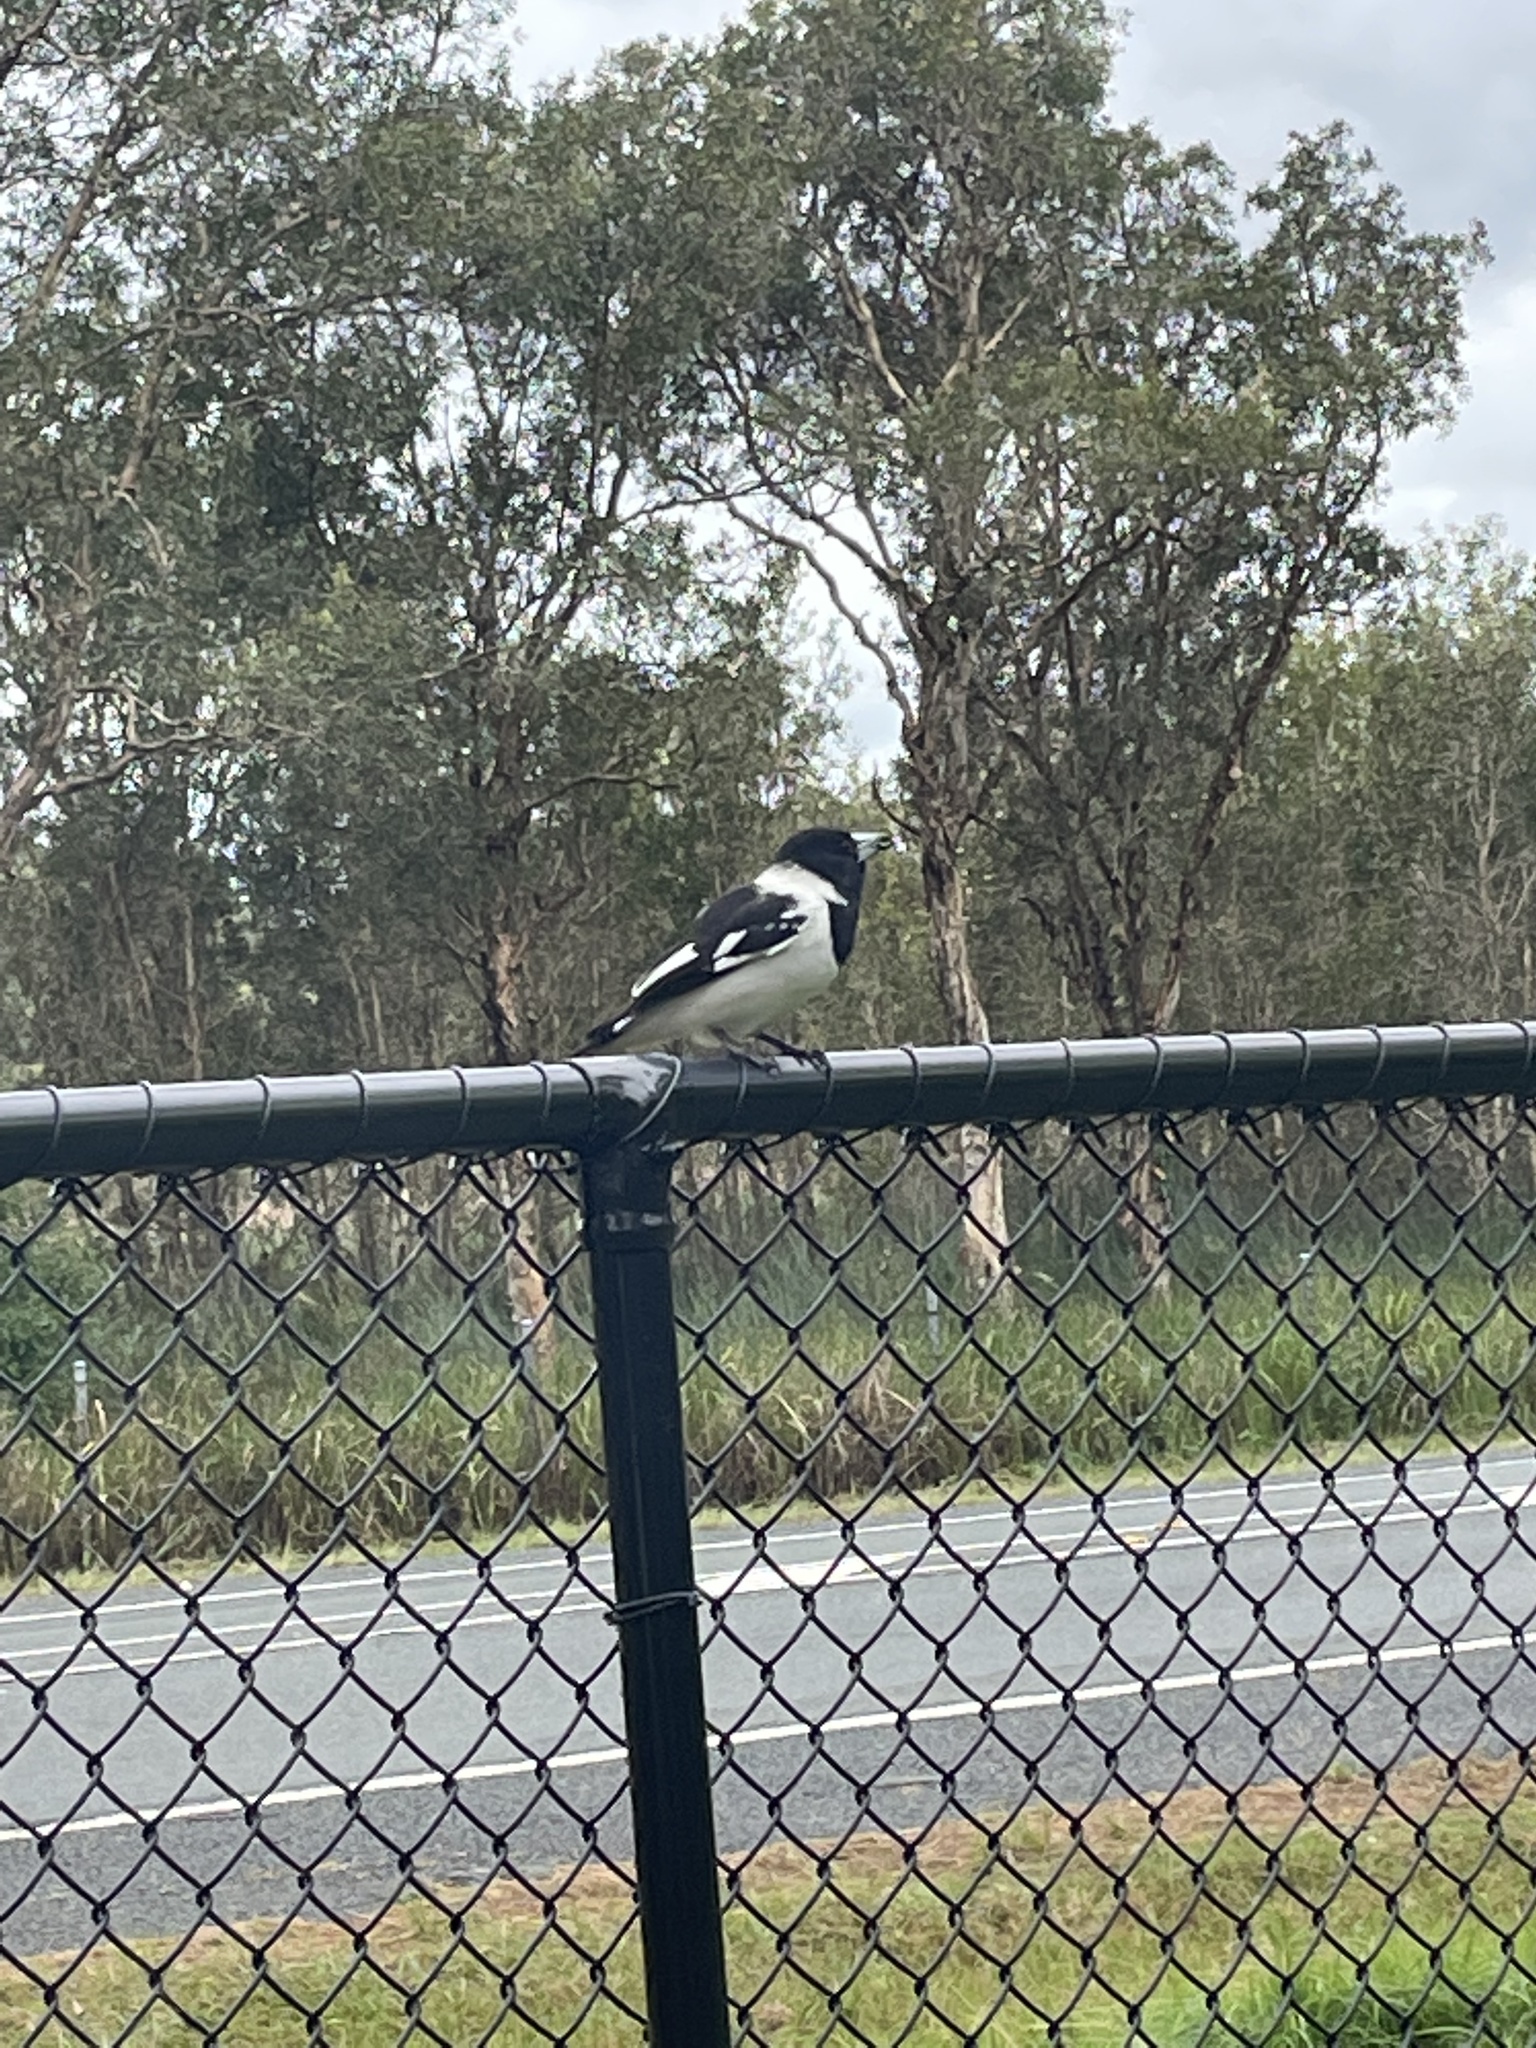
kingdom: Animalia
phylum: Chordata
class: Aves
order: Passeriformes
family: Cracticidae
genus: Cracticus
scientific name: Cracticus nigrogularis
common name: Pied butcherbird
